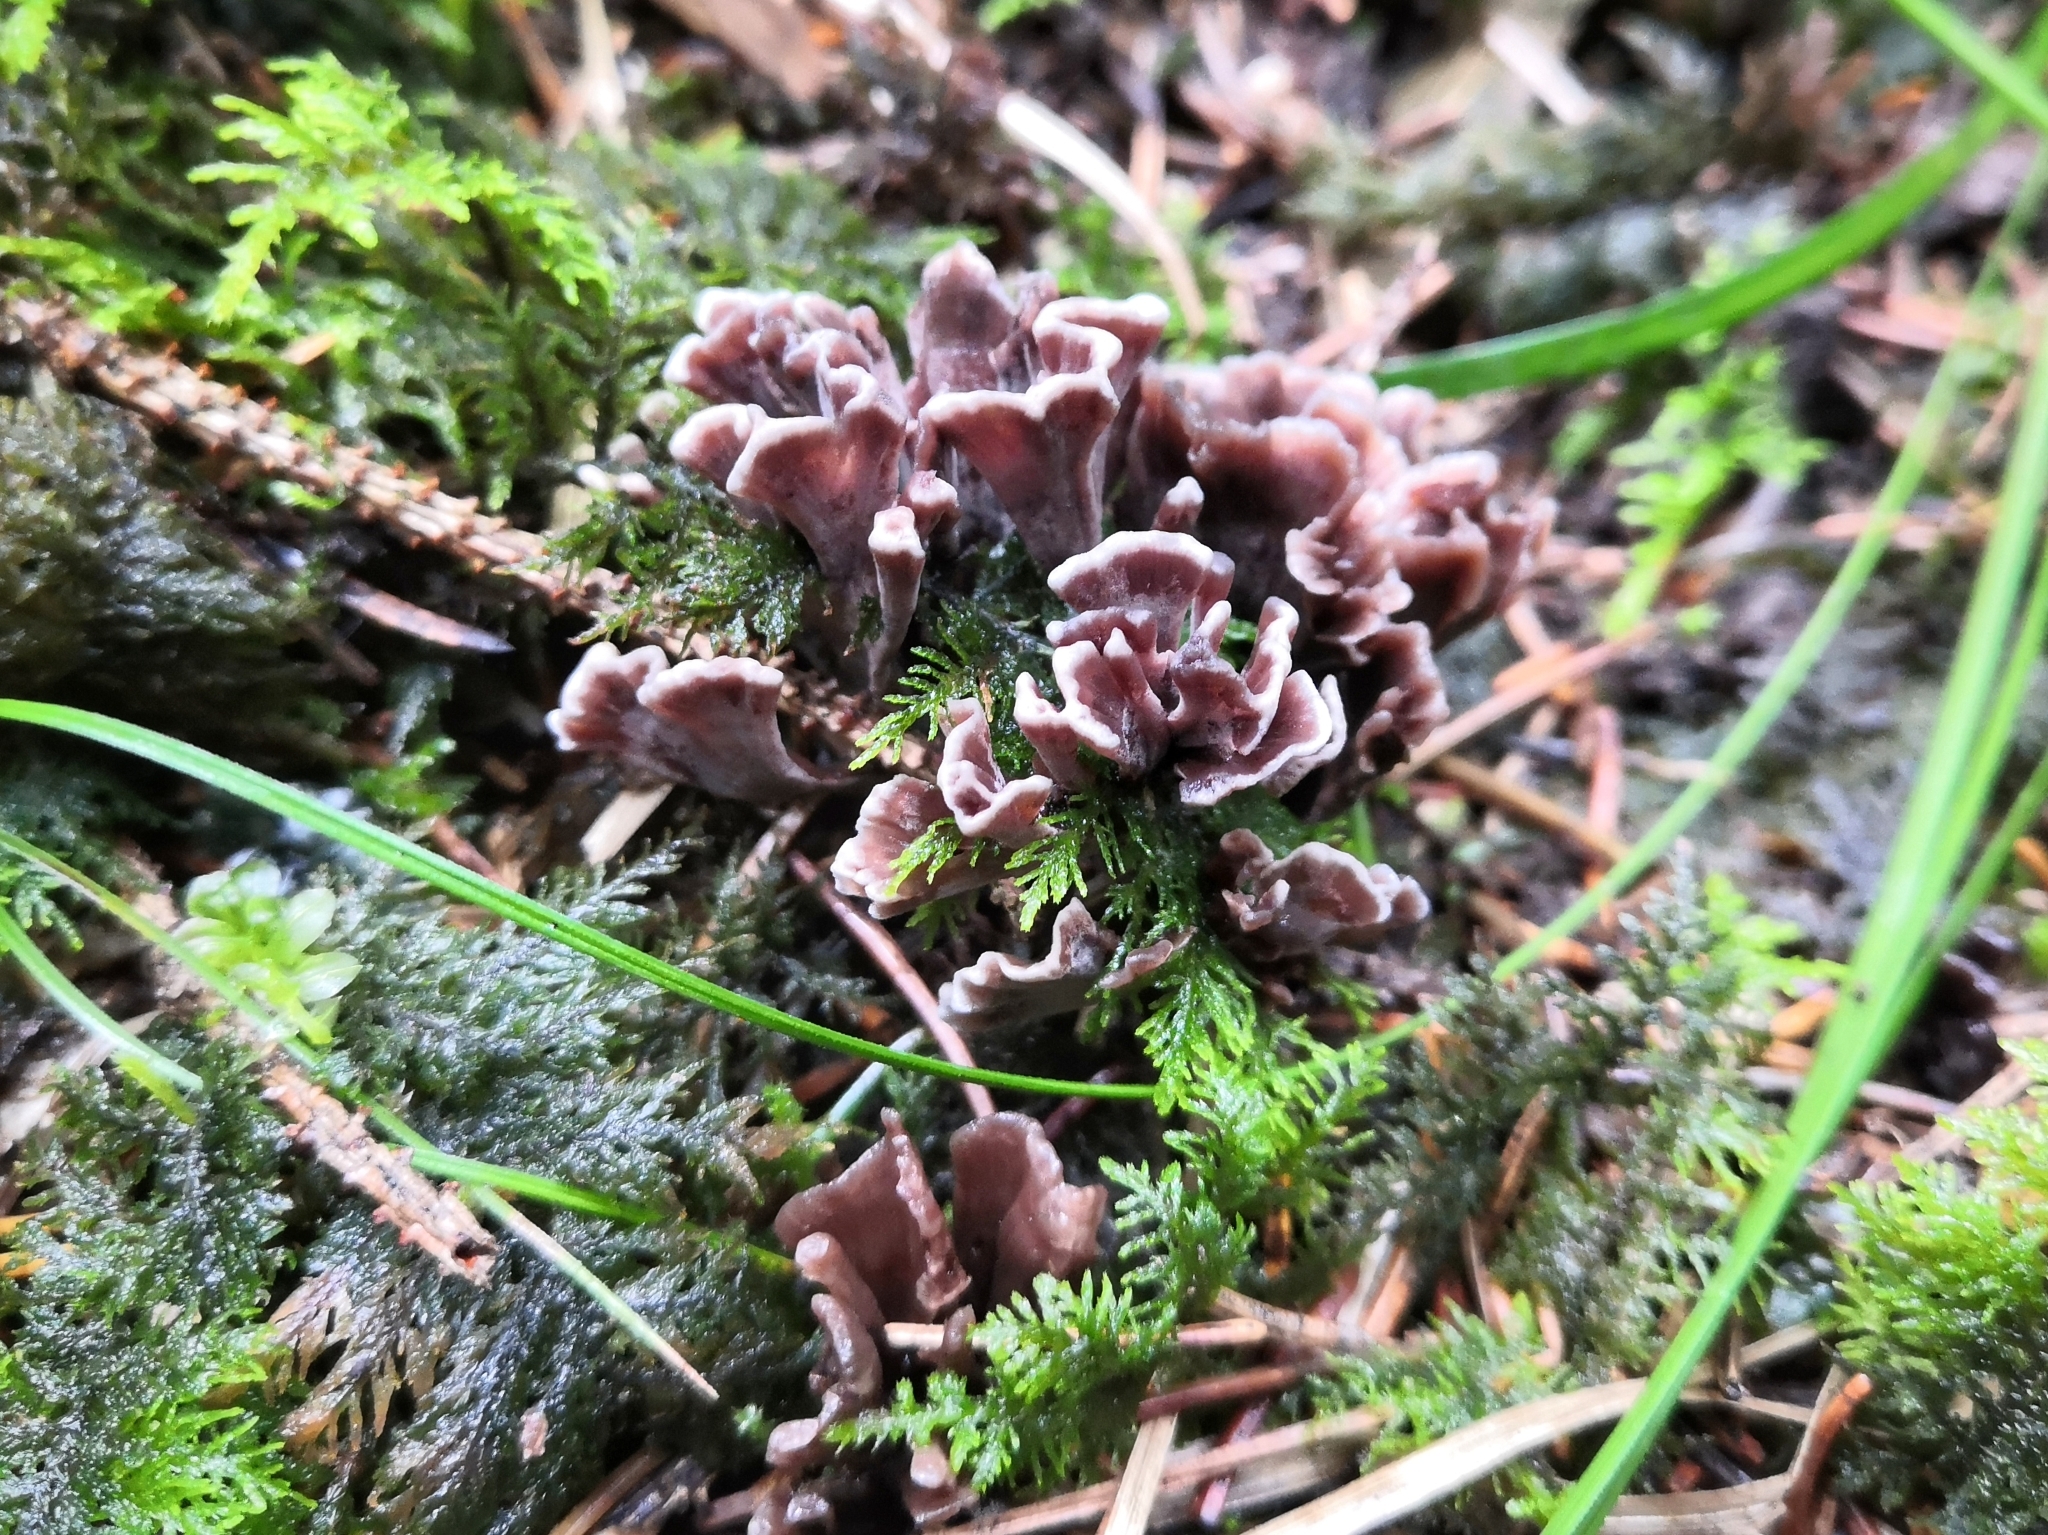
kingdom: Fungi
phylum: Basidiomycota
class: Agaricomycetes
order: Thelephorales
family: Thelephoraceae
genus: Thelephora
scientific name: Thelephora palmata
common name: Stinking earthfan
